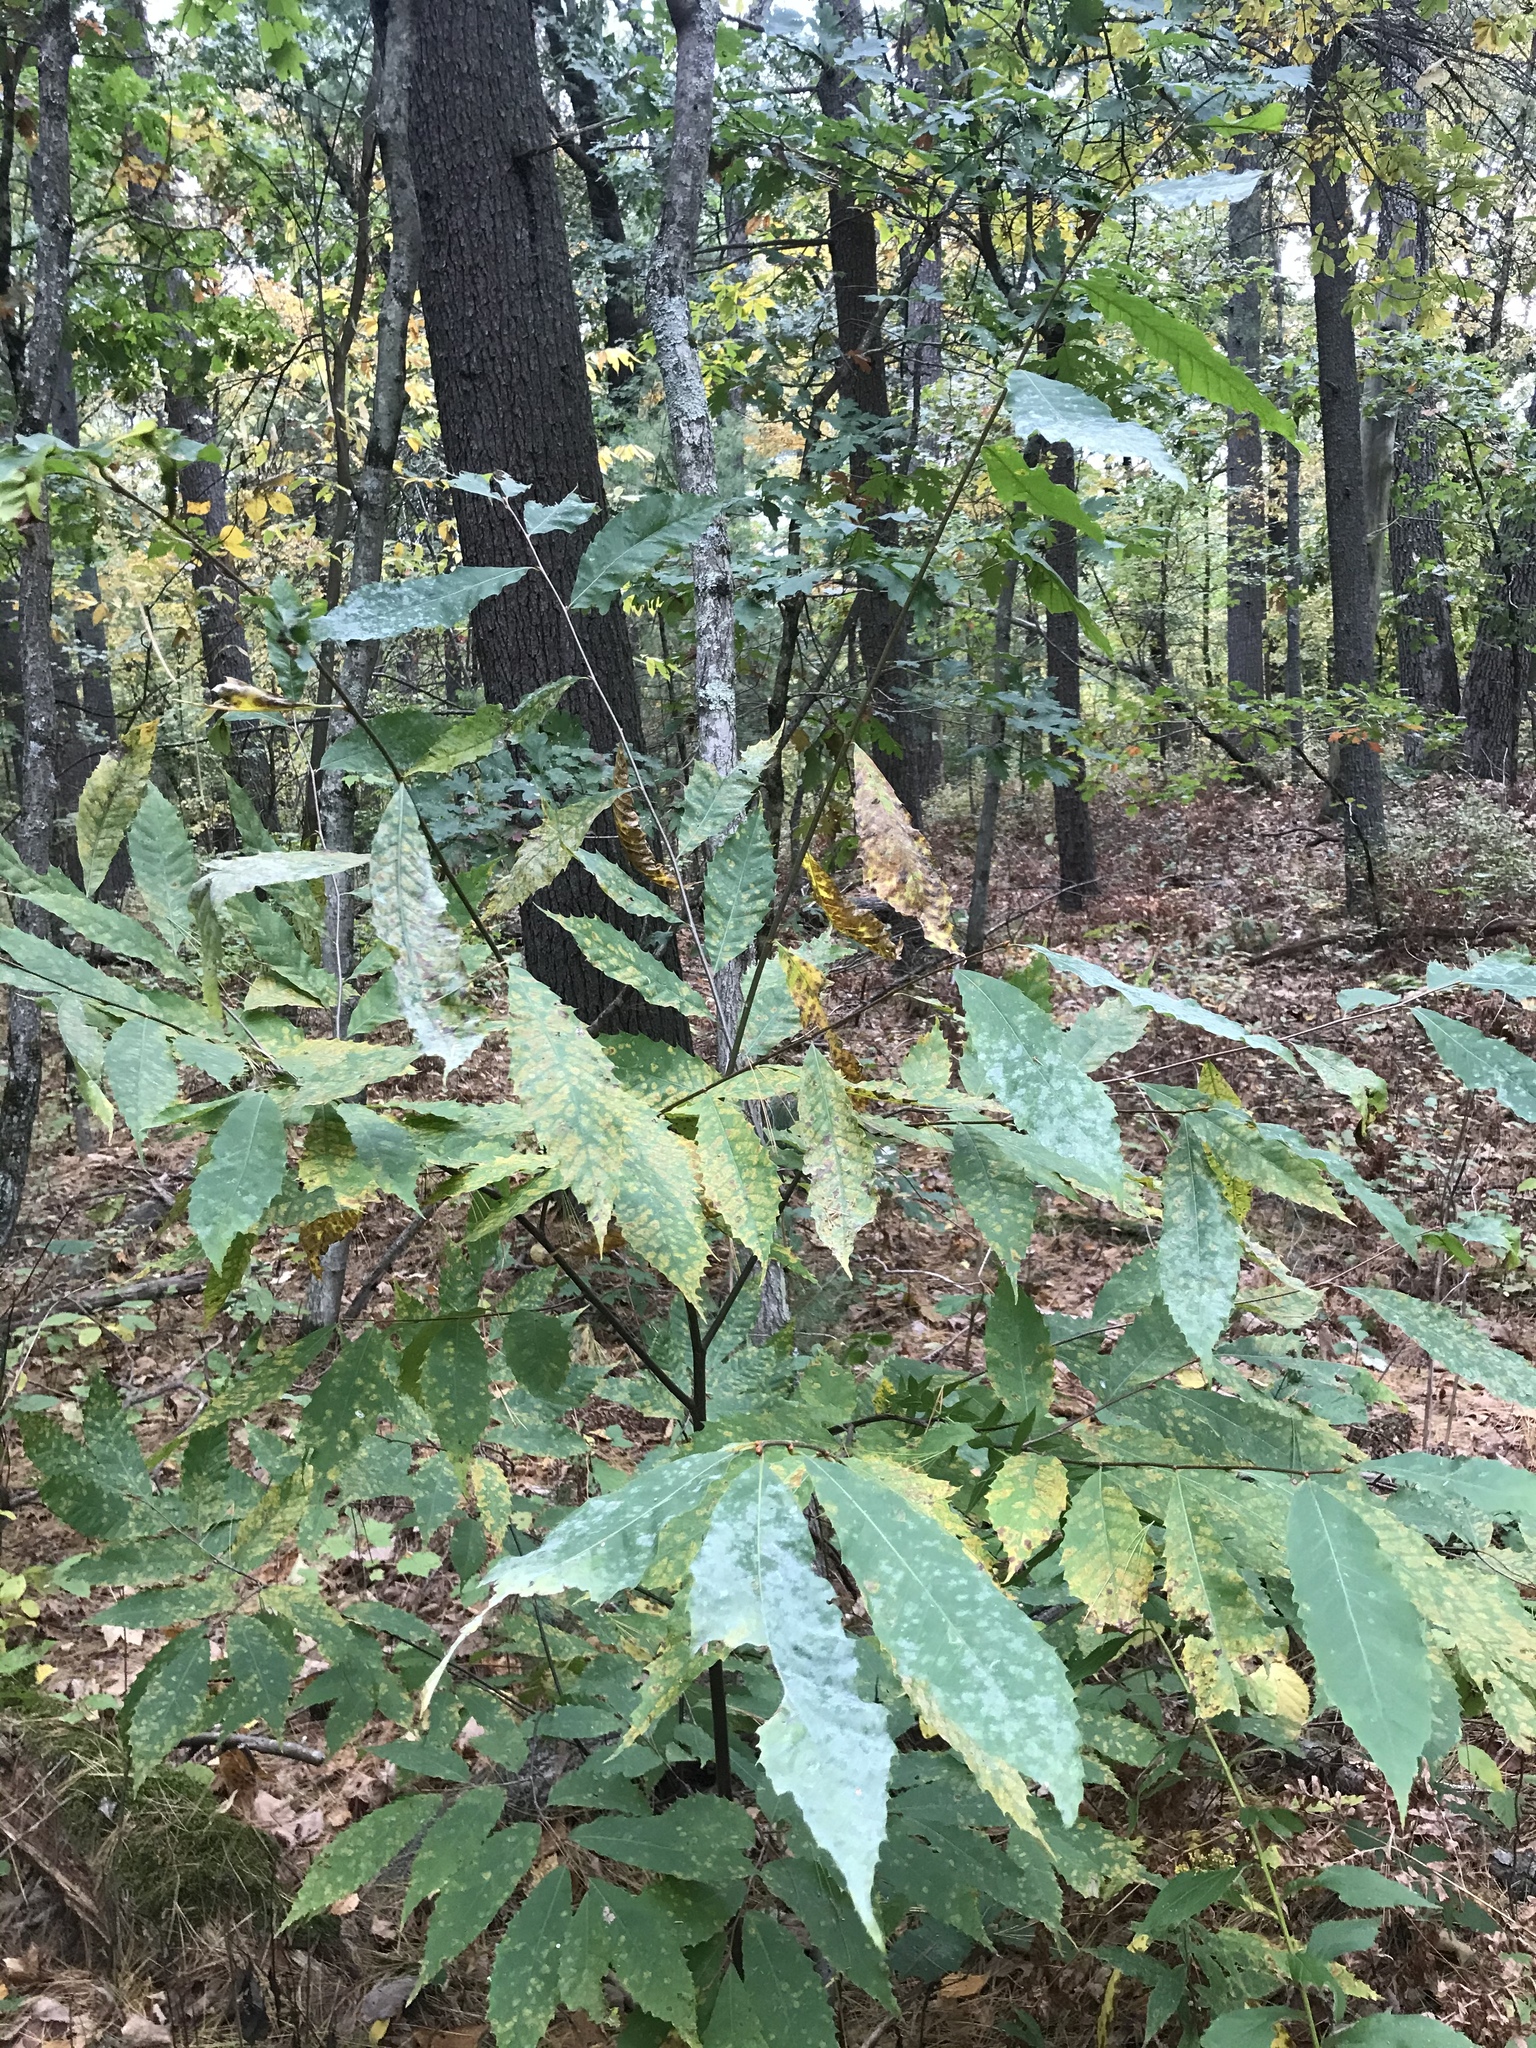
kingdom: Plantae
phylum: Tracheophyta
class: Magnoliopsida
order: Fagales
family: Fagaceae
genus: Castanea
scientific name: Castanea dentata
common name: American chestnut
